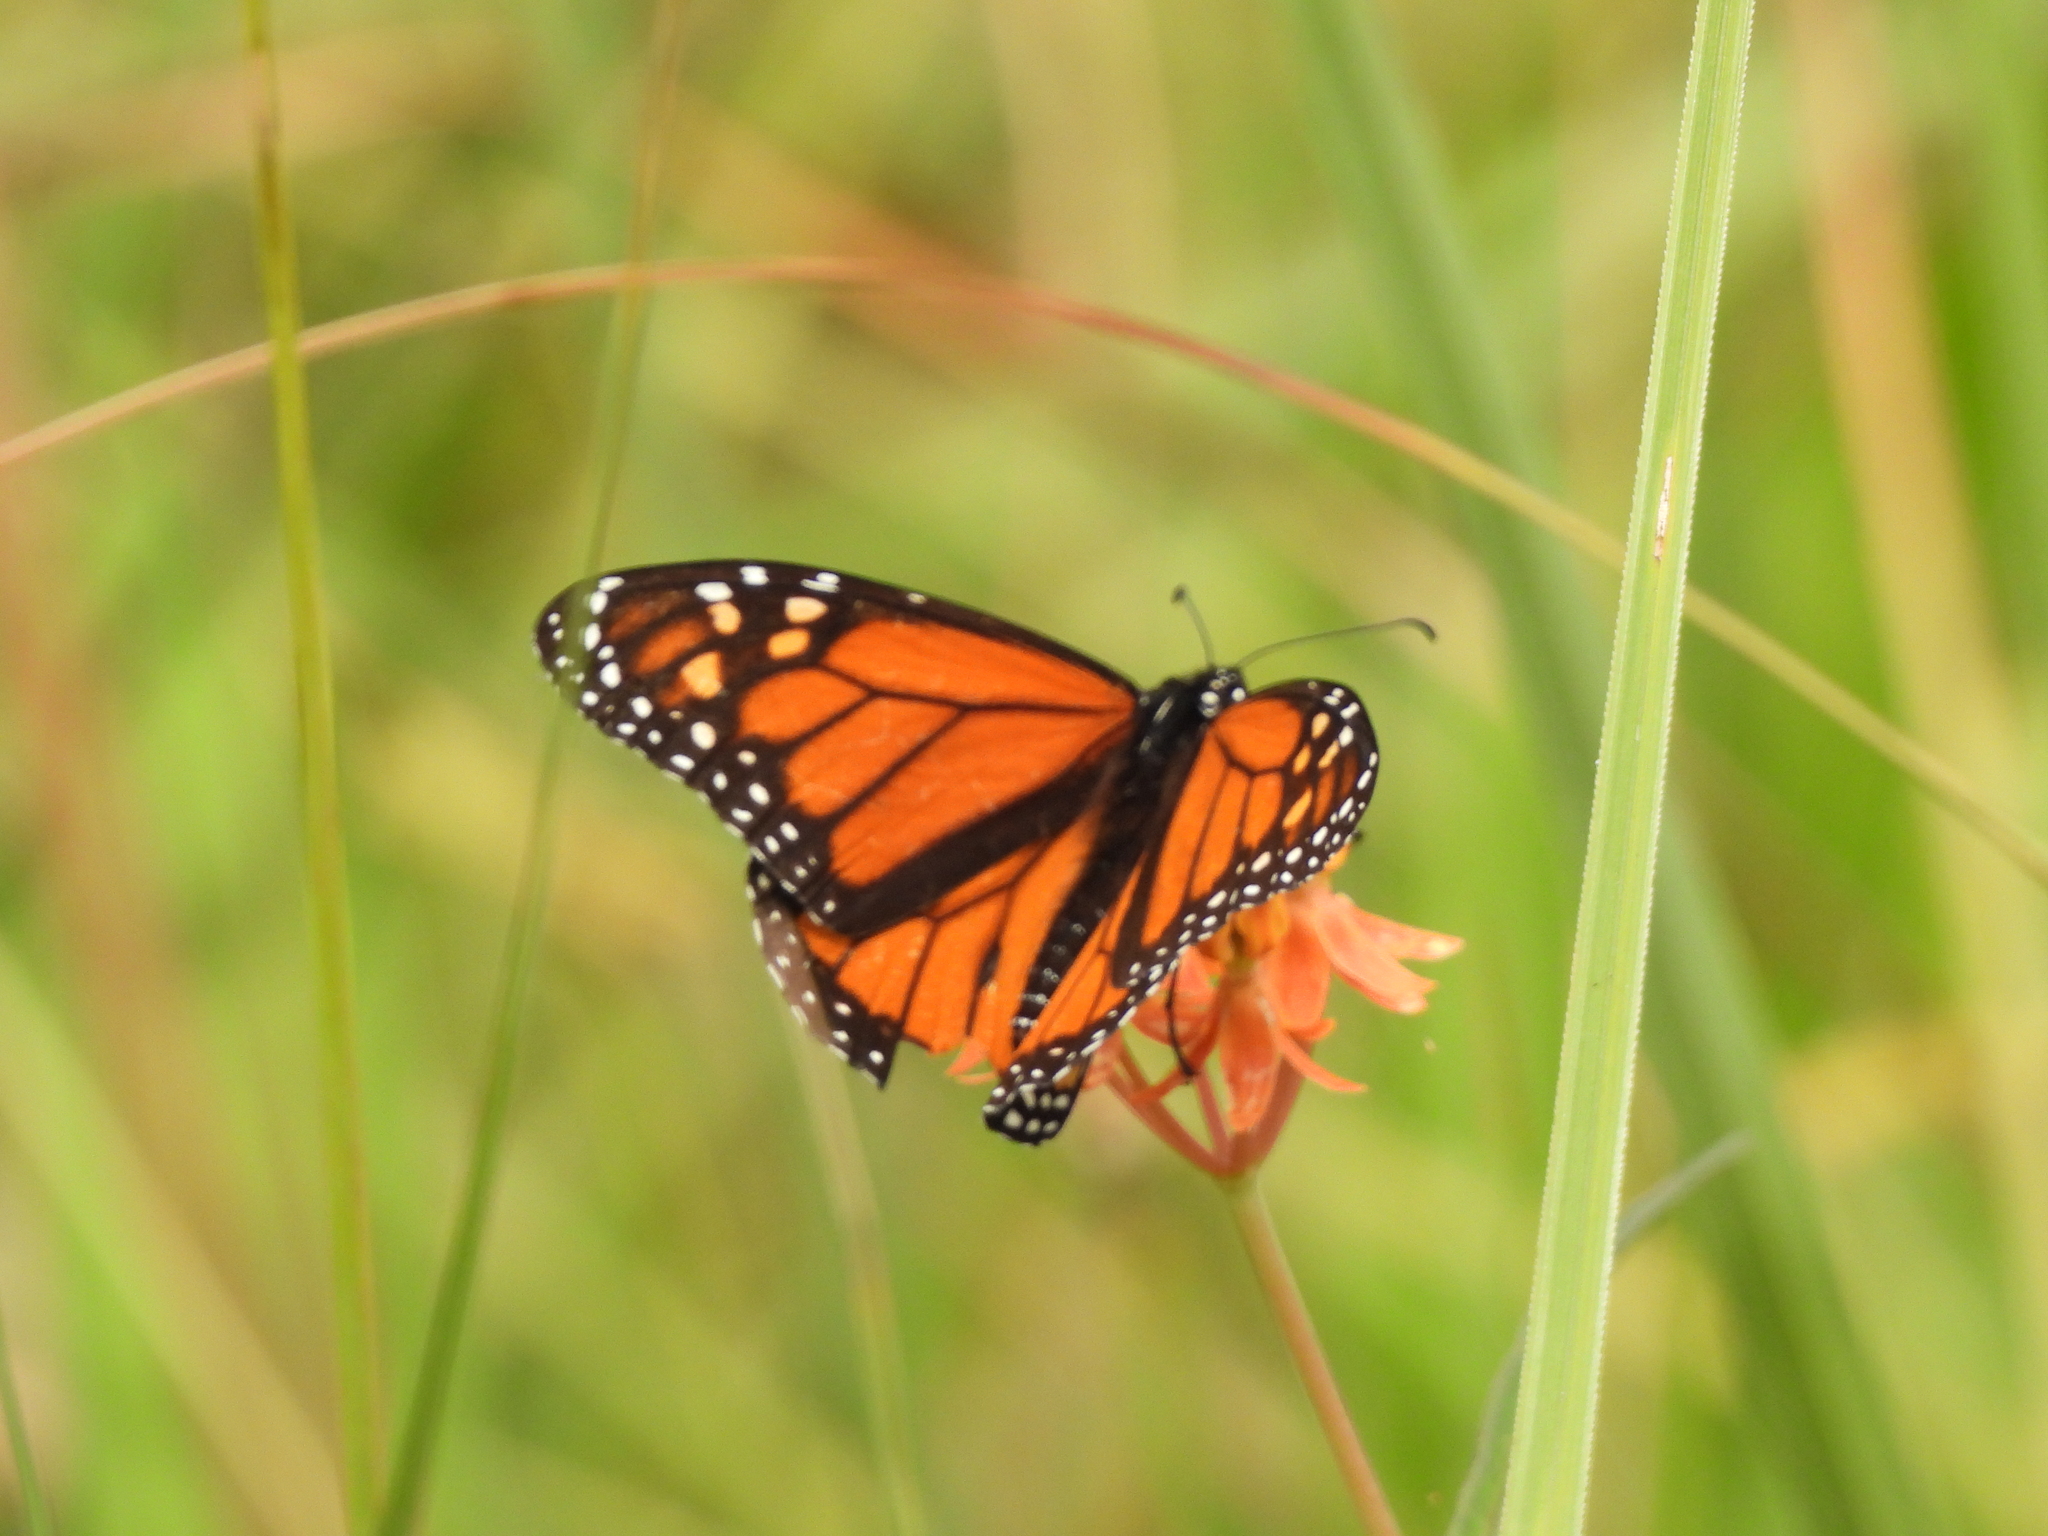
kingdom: Plantae
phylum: Tracheophyta
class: Magnoliopsida
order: Gentianales
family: Apocynaceae
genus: Asclepias
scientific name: Asclepias lanceolata
